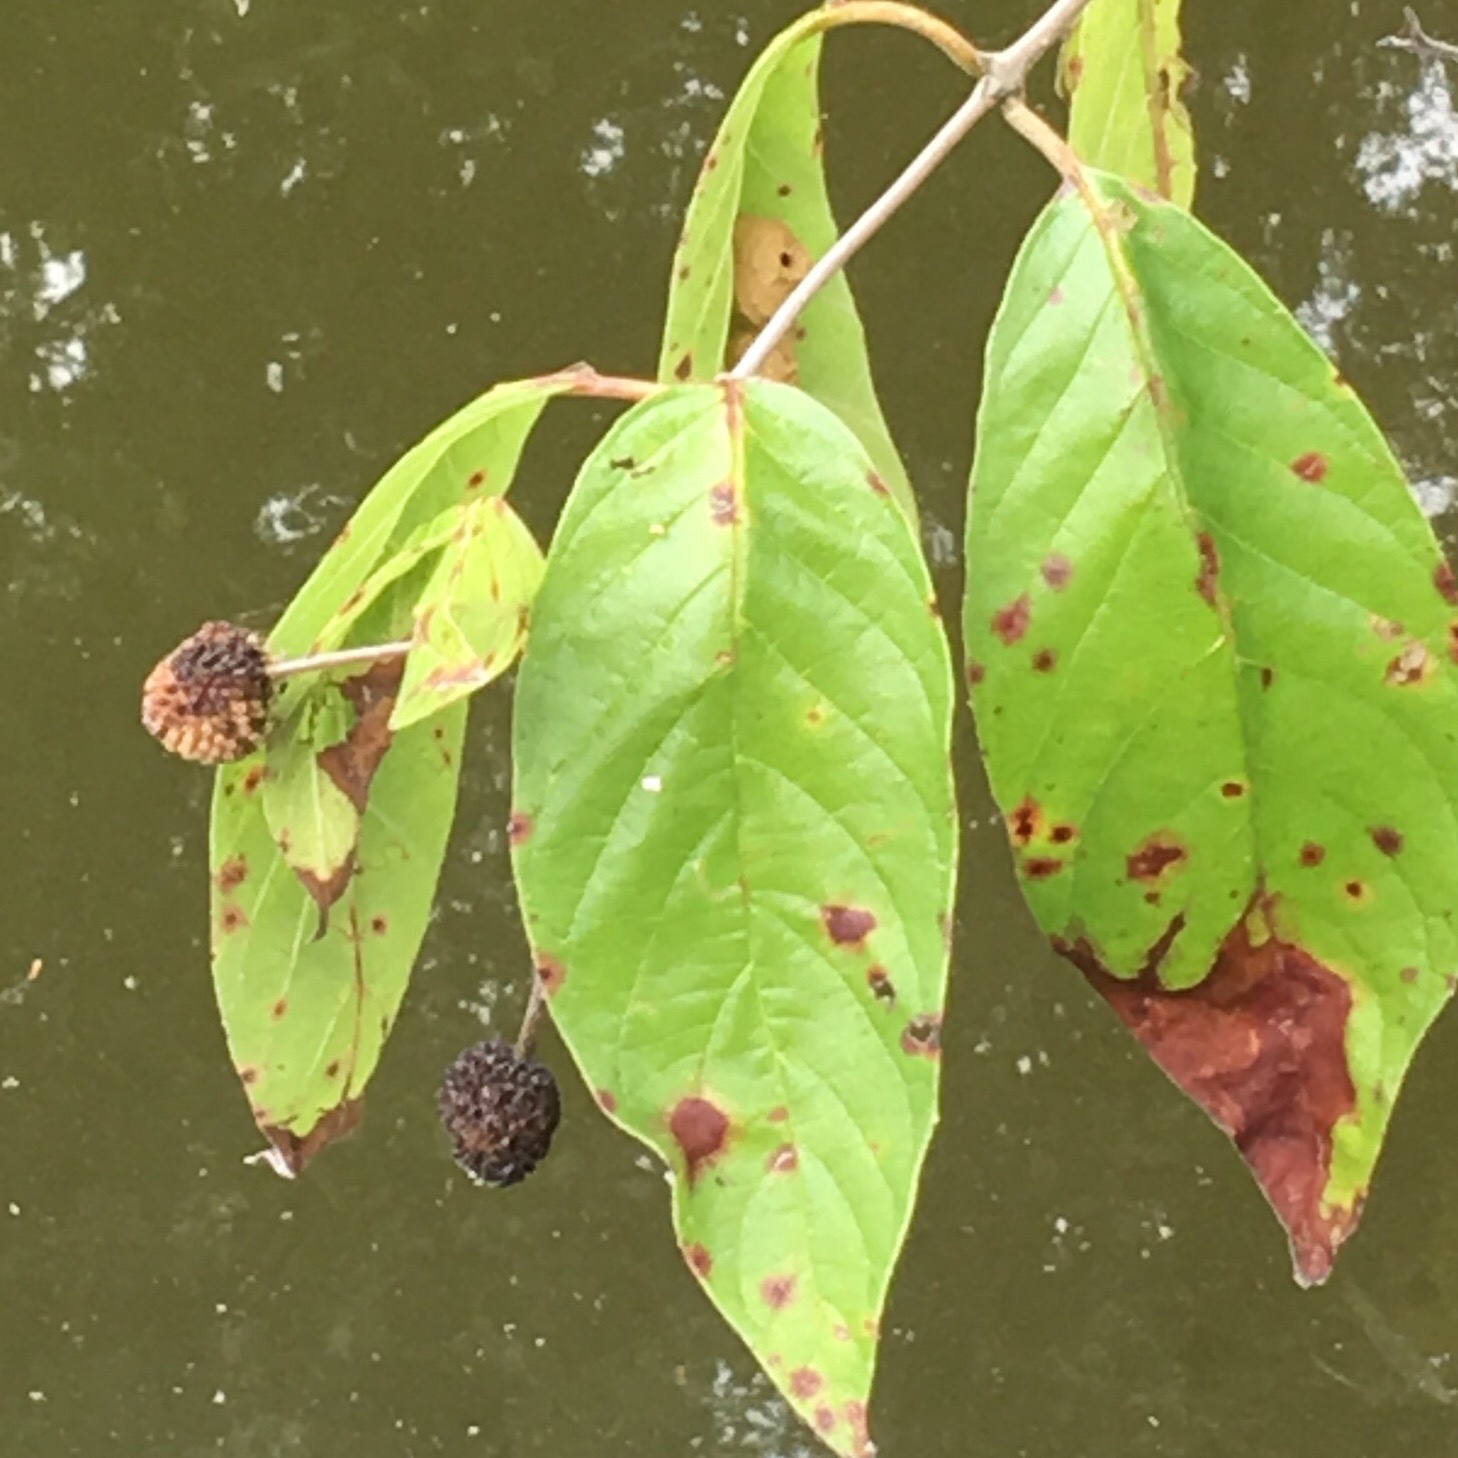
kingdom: Plantae
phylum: Tracheophyta
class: Magnoliopsida
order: Gentianales
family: Rubiaceae
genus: Cephalanthus
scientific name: Cephalanthus occidentalis
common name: Button-willow
